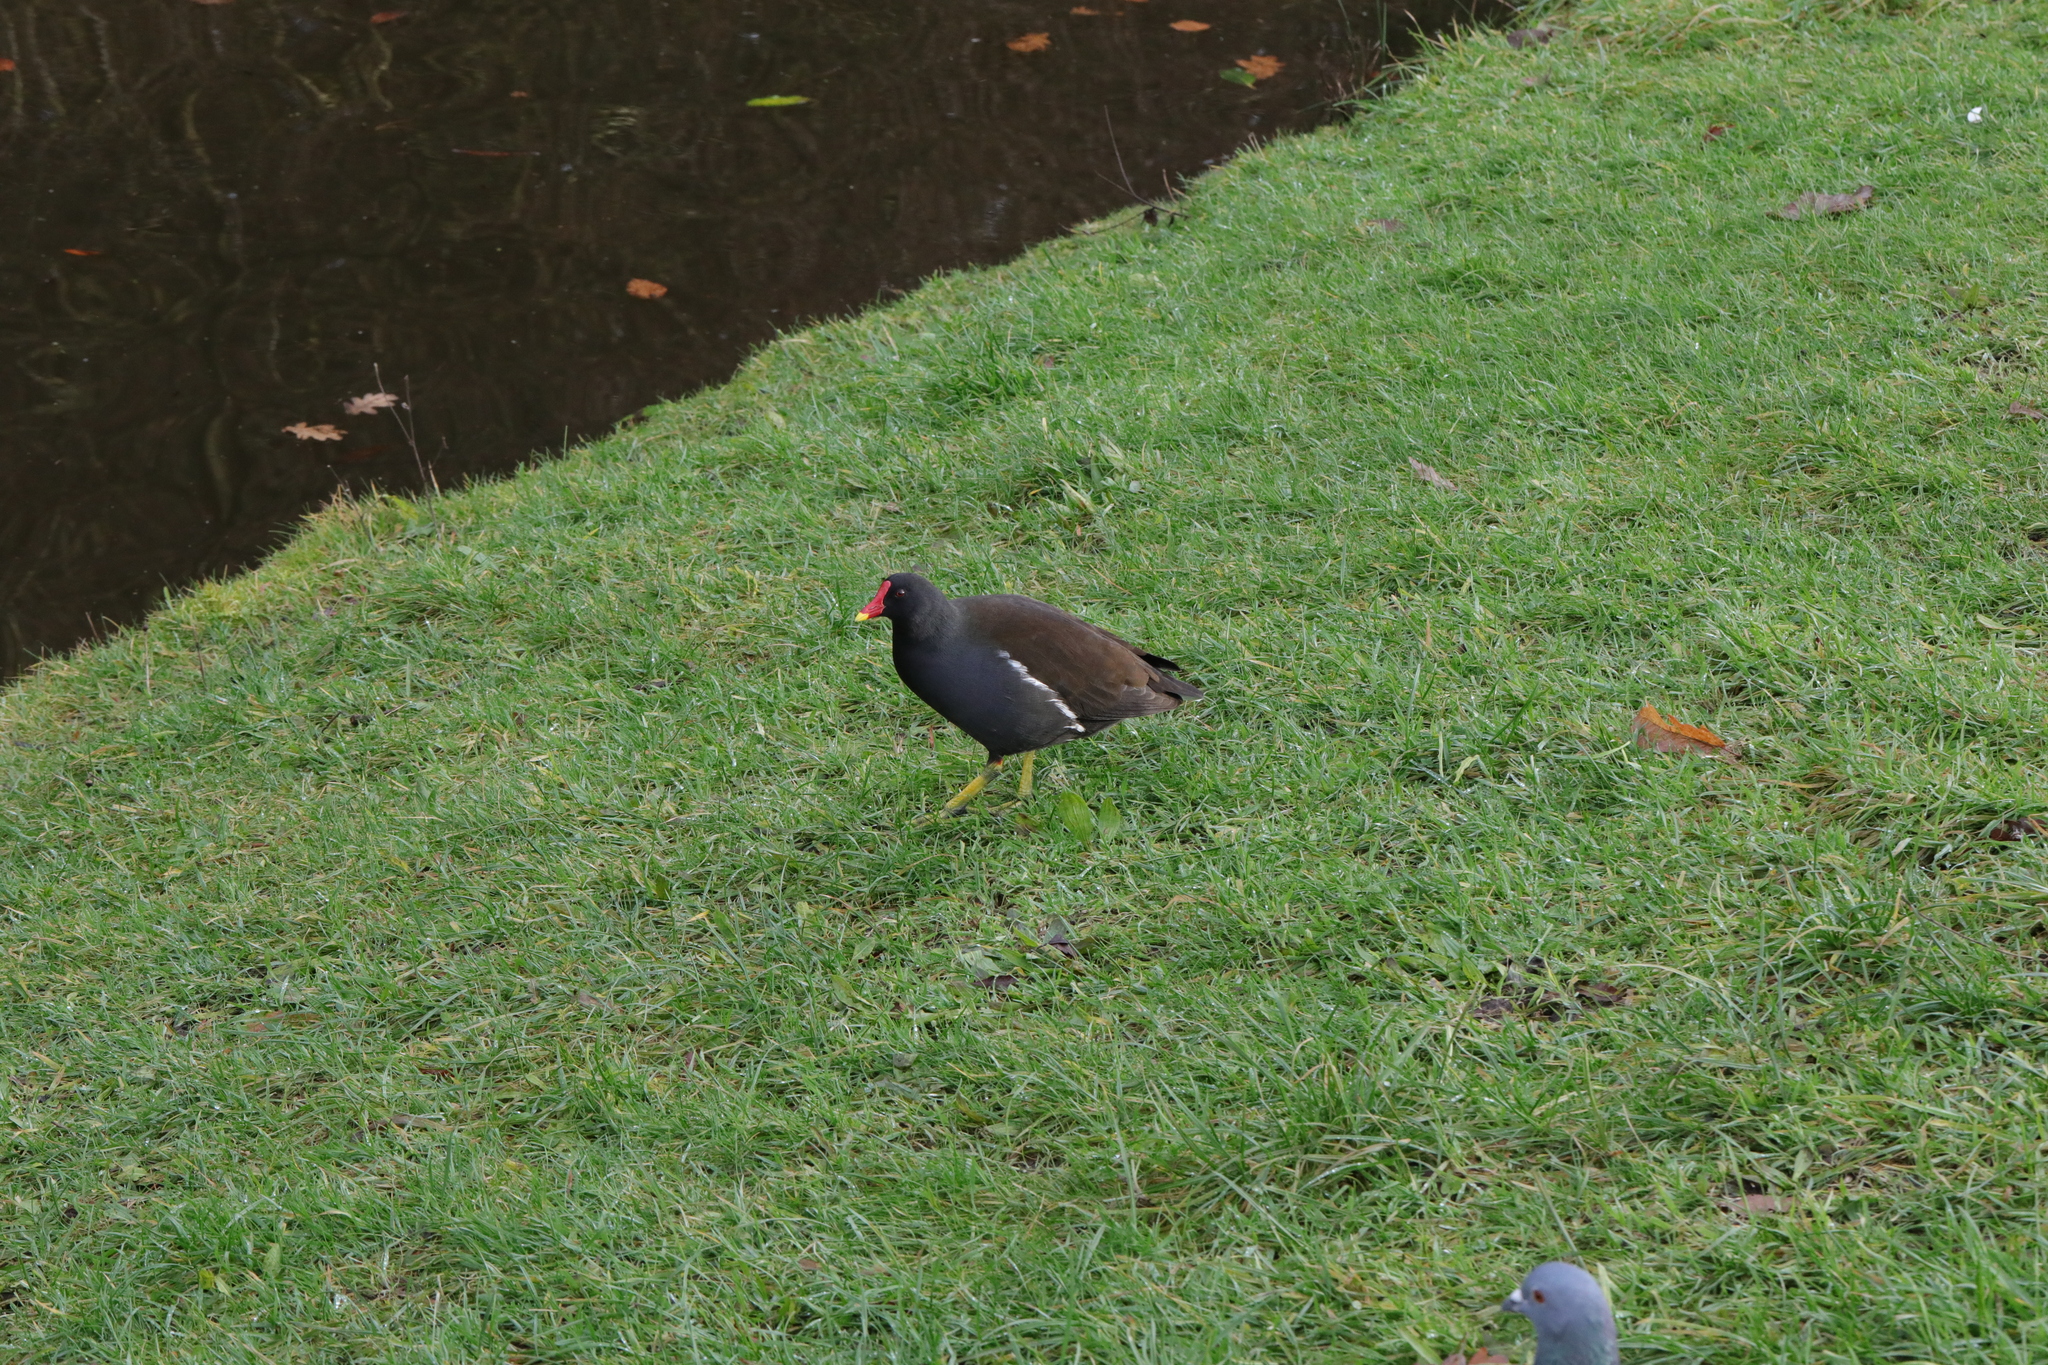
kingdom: Animalia
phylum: Chordata
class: Aves
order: Gruiformes
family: Rallidae
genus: Gallinula
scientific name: Gallinula chloropus
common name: Common moorhen
